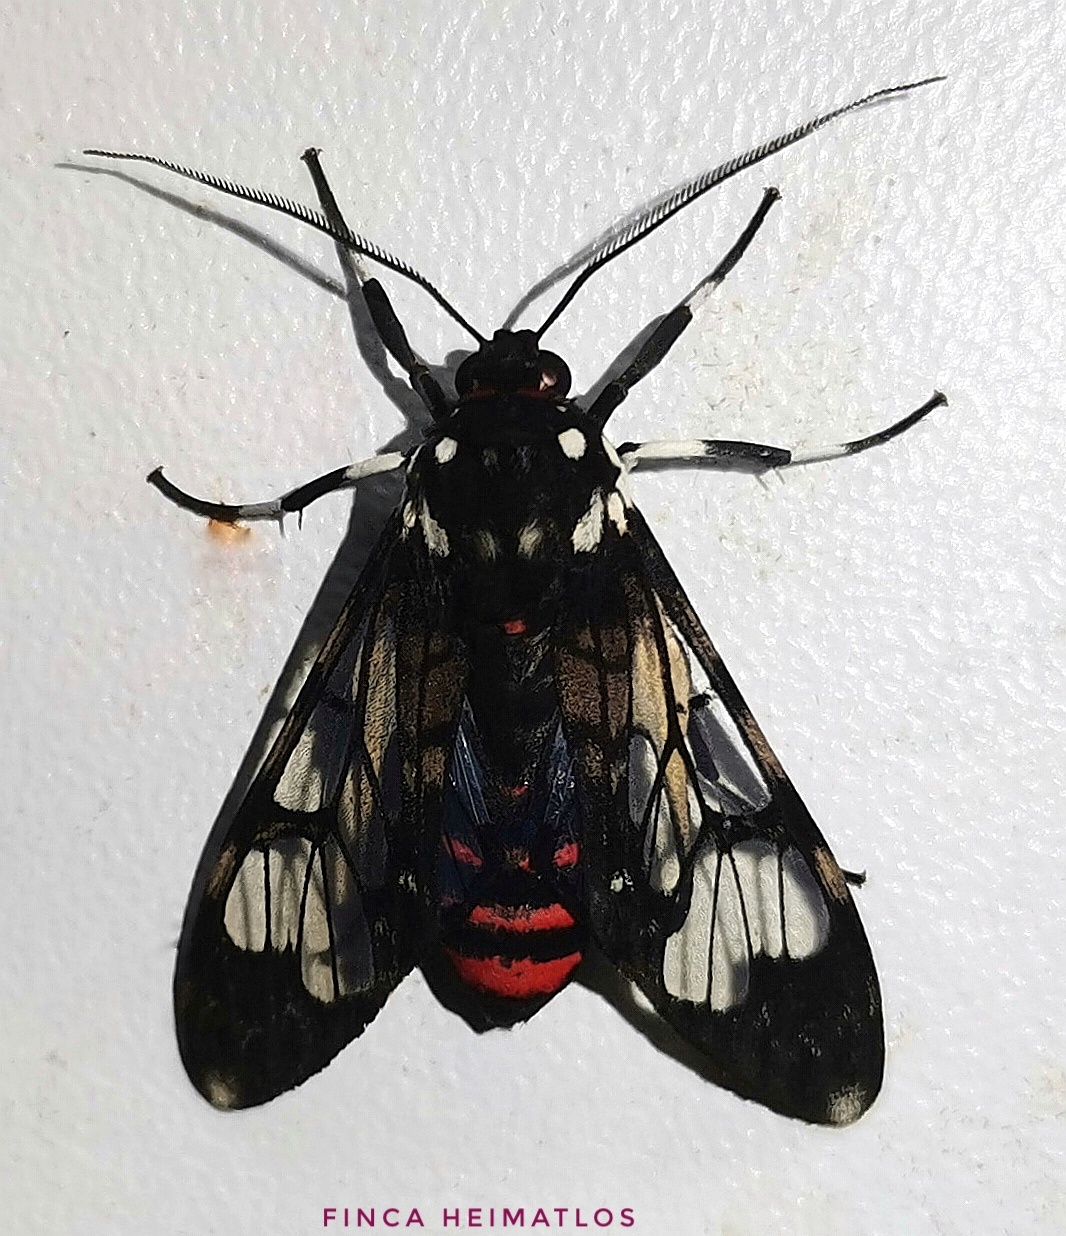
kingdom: Animalia
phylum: Arthropoda
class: Insecta
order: Lepidoptera
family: Erebidae
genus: Hyaleucerea
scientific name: Hyaleucerea vulnerata
